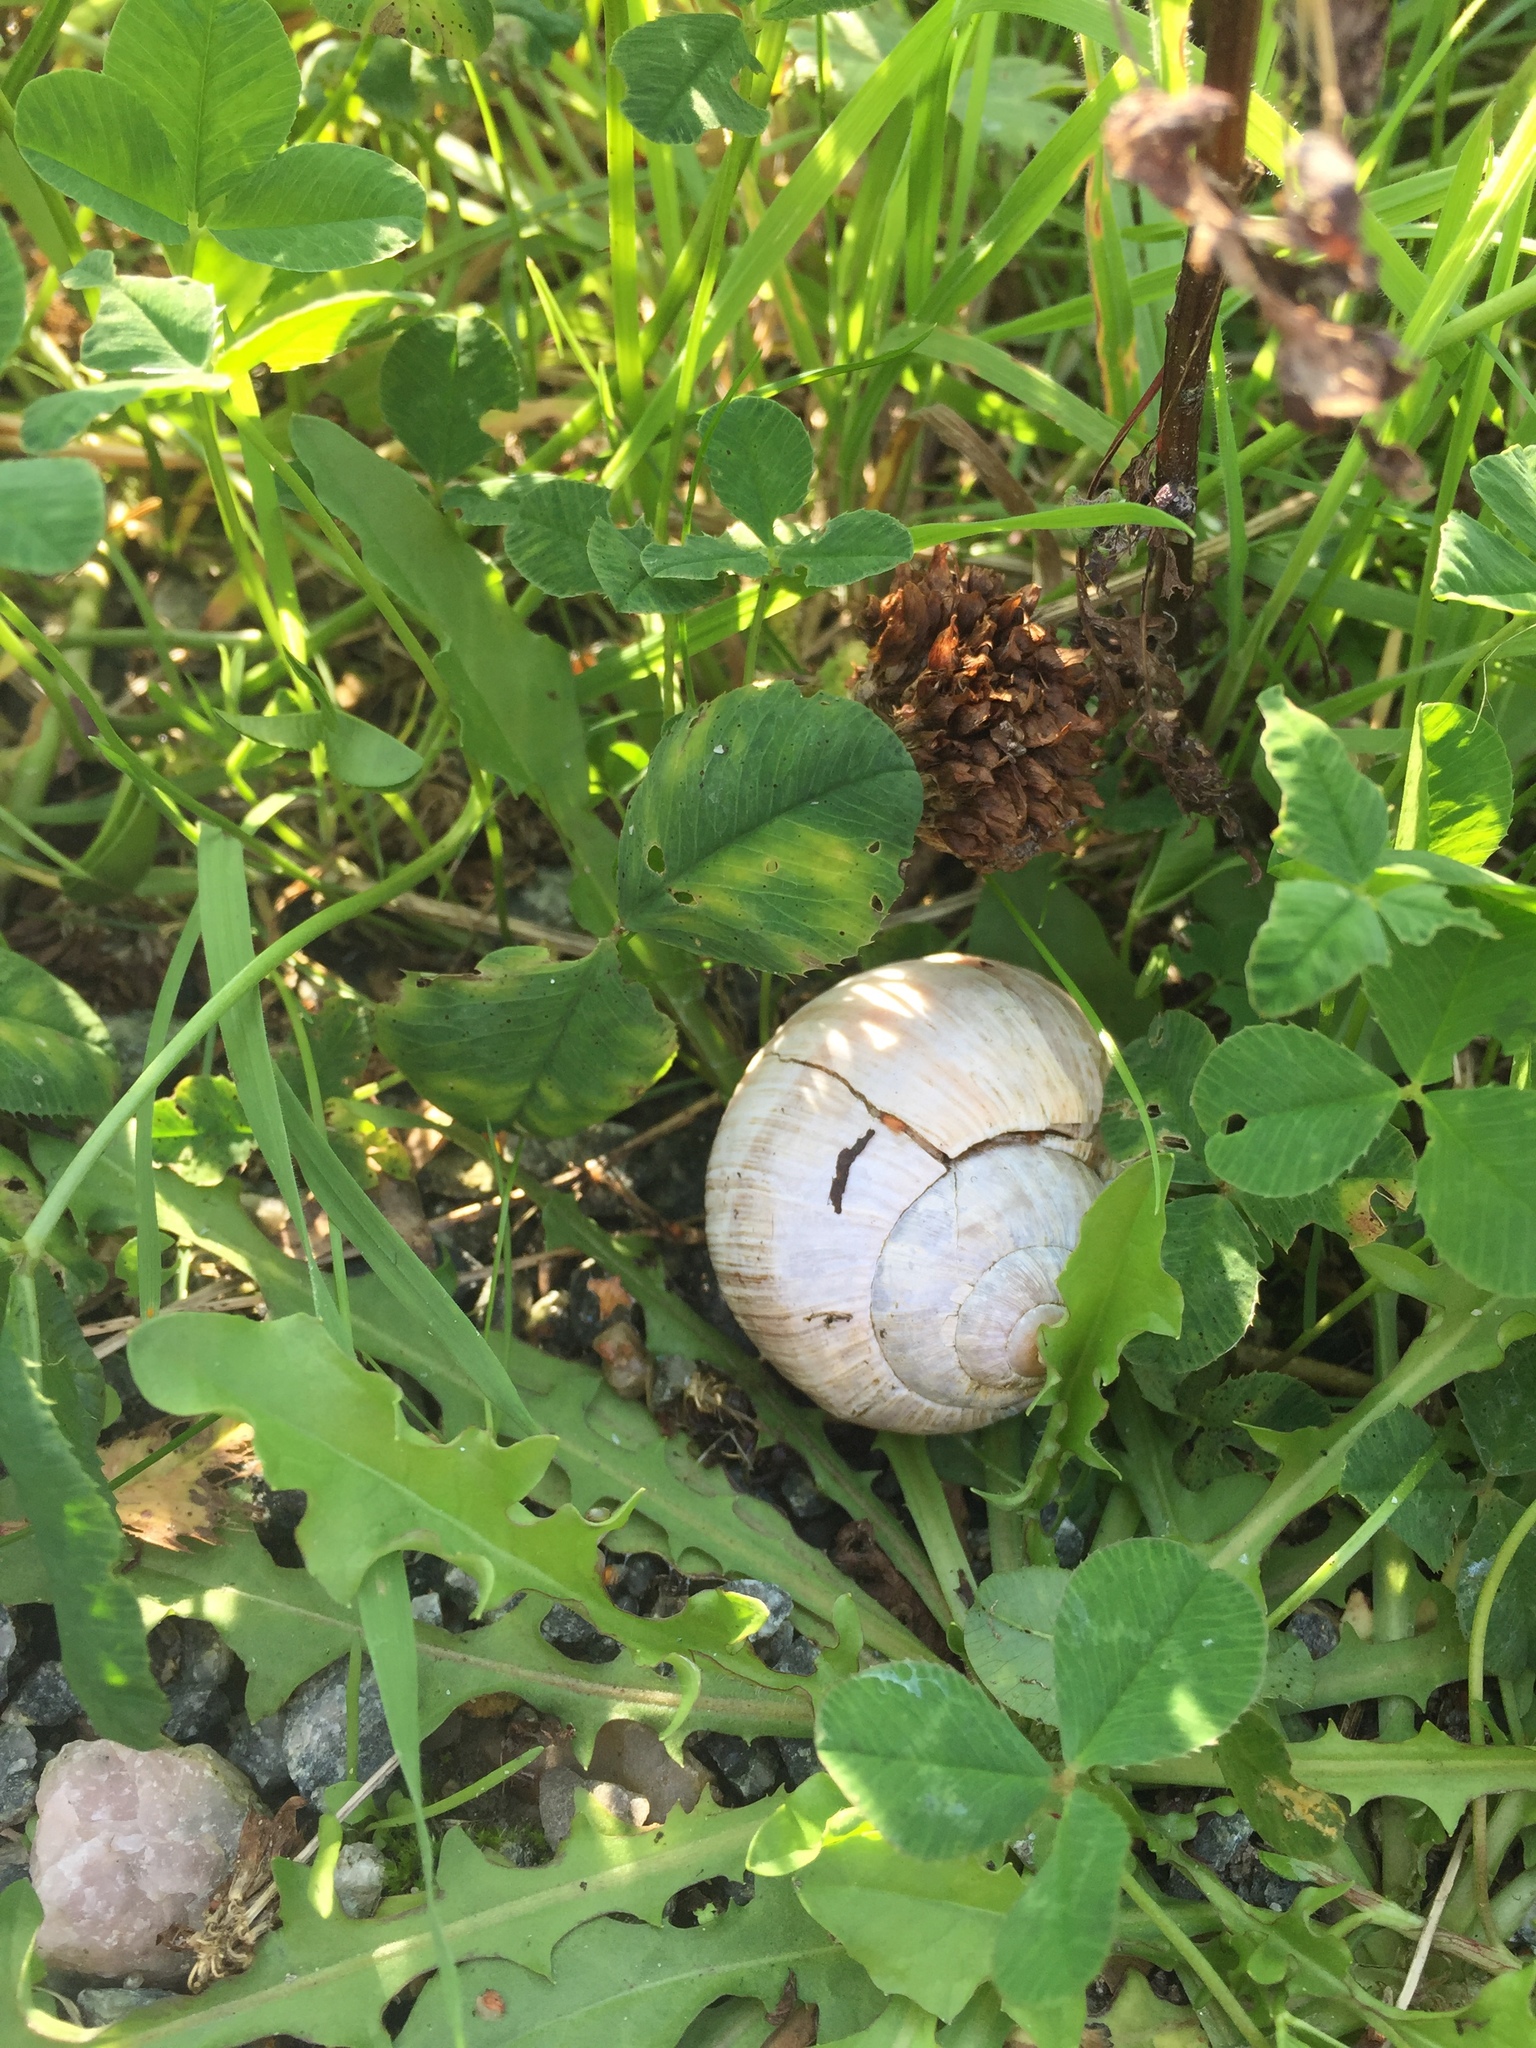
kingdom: Animalia
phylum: Mollusca
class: Gastropoda
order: Stylommatophora
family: Helicidae
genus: Helix
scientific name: Helix pomatia
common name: Roman snail
